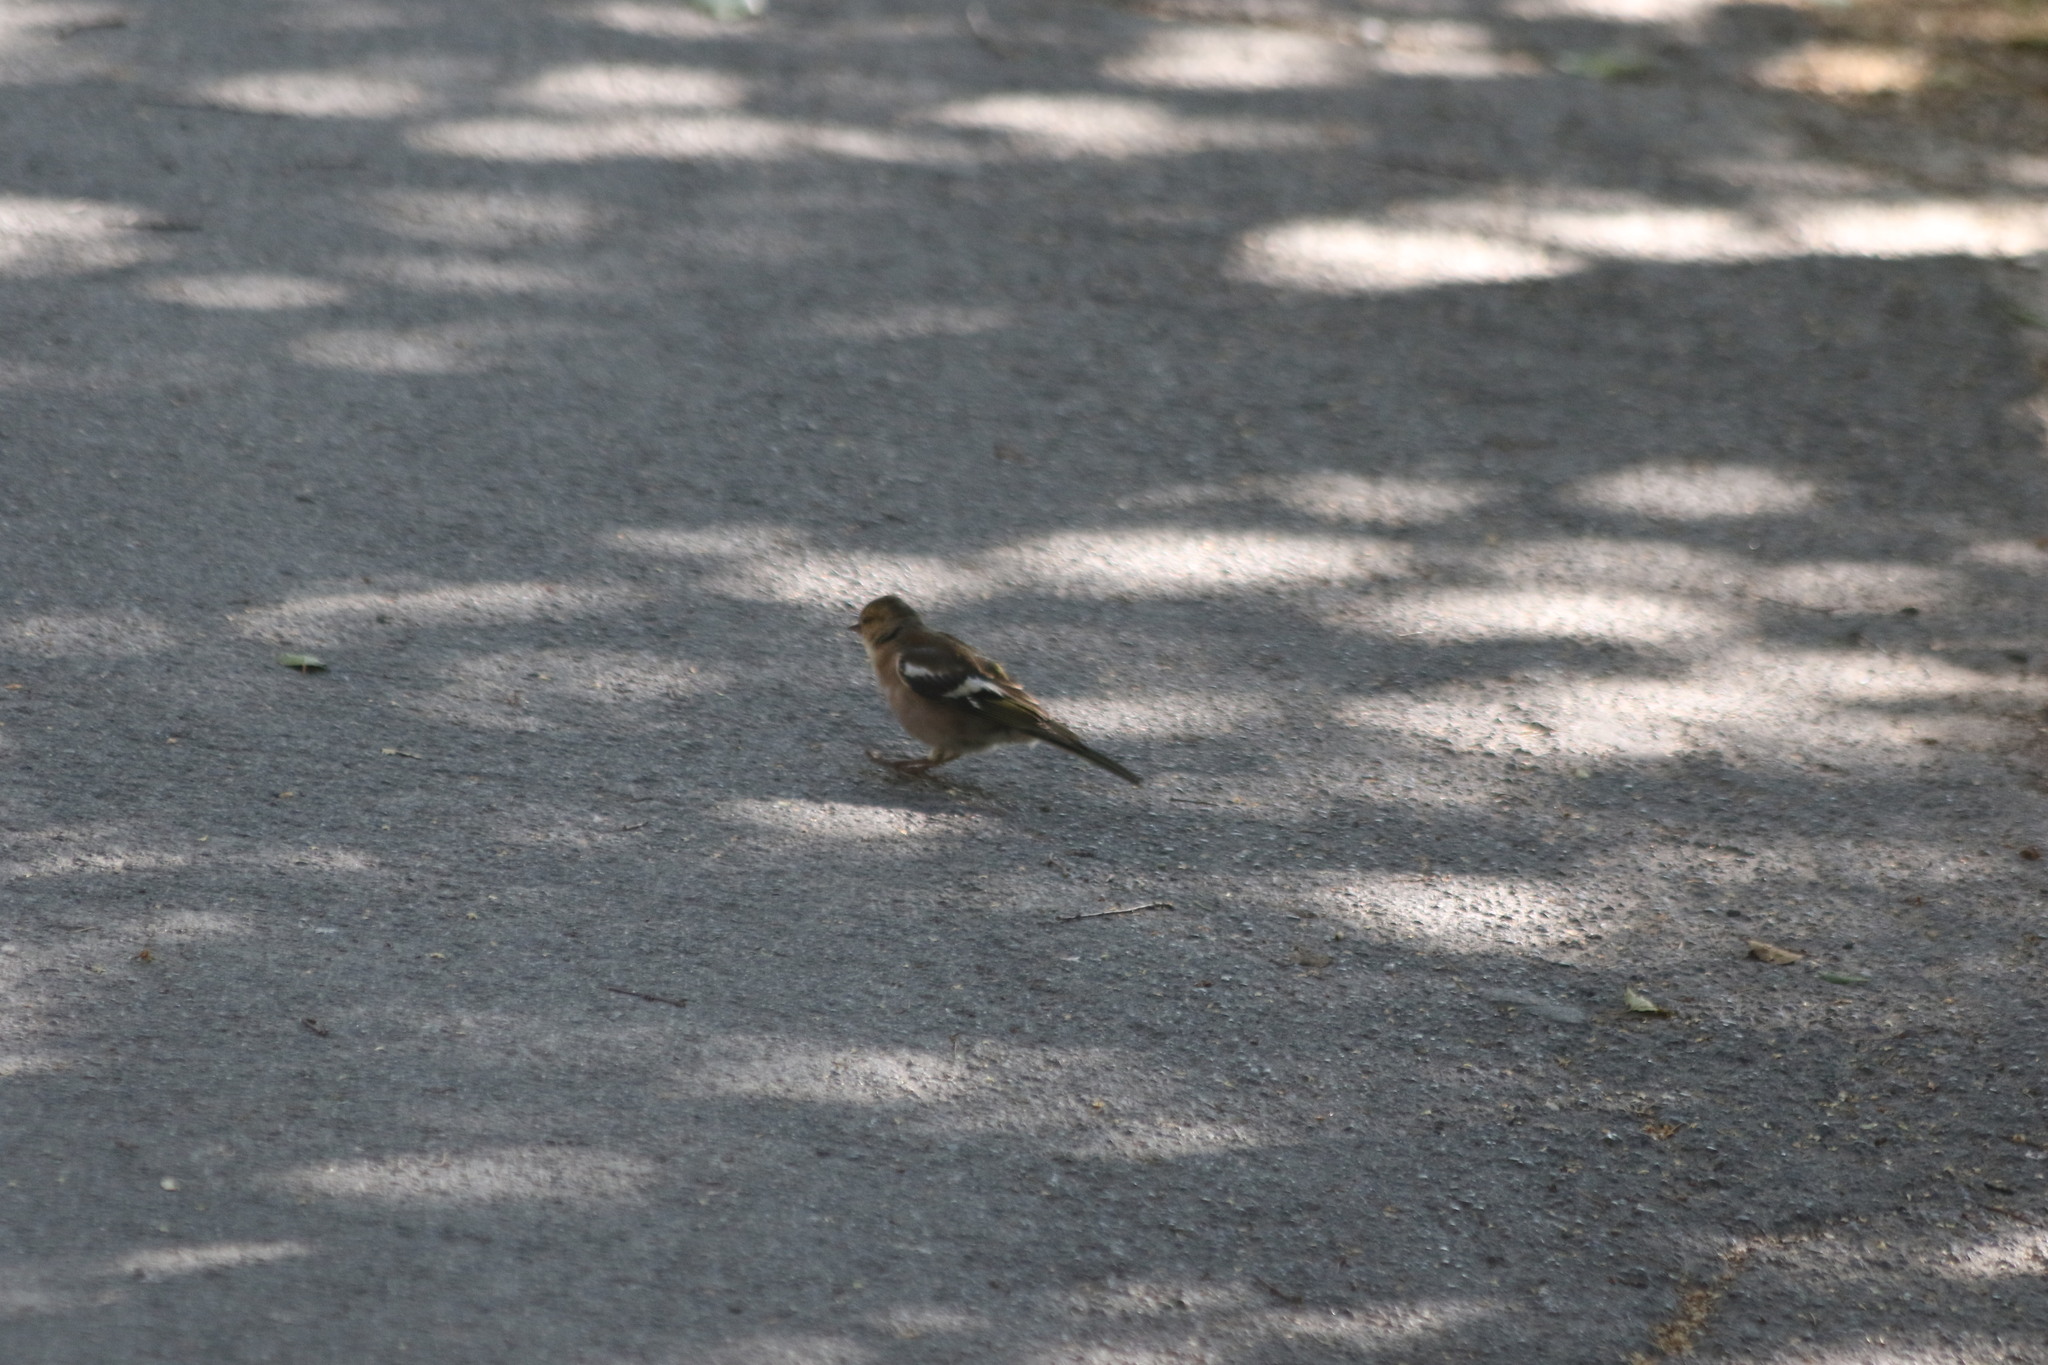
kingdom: Animalia
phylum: Chordata
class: Aves
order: Passeriformes
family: Fringillidae
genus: Fringilla
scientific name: Fringilla coelebs
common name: Common chaffinch
